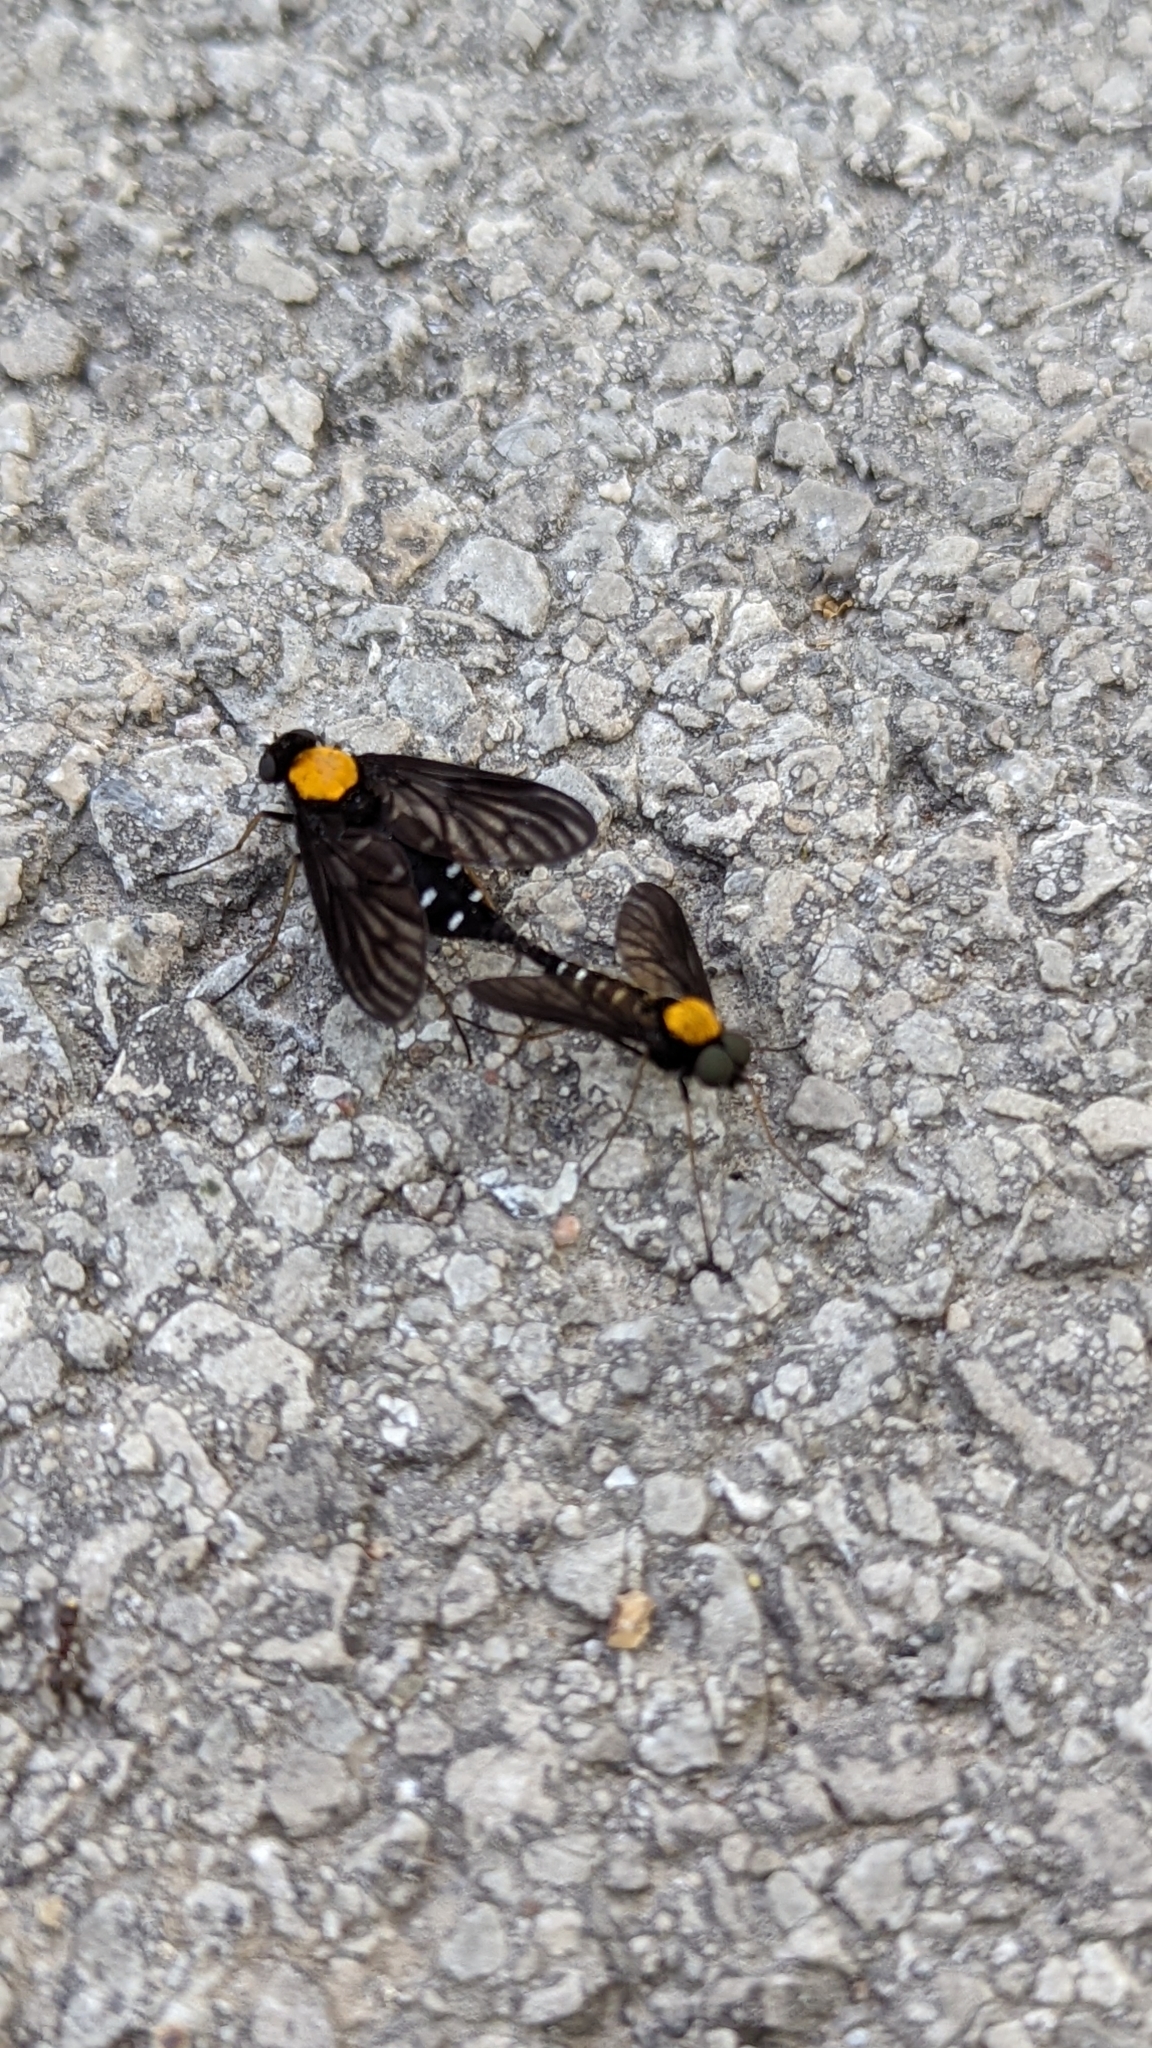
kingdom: Animalia
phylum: Arthropoda
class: Insecta
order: Diptera
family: Rhagionidae
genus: Chrysopilus
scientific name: Chrysopilus thoracicus
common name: Golden-backed snipe fly
